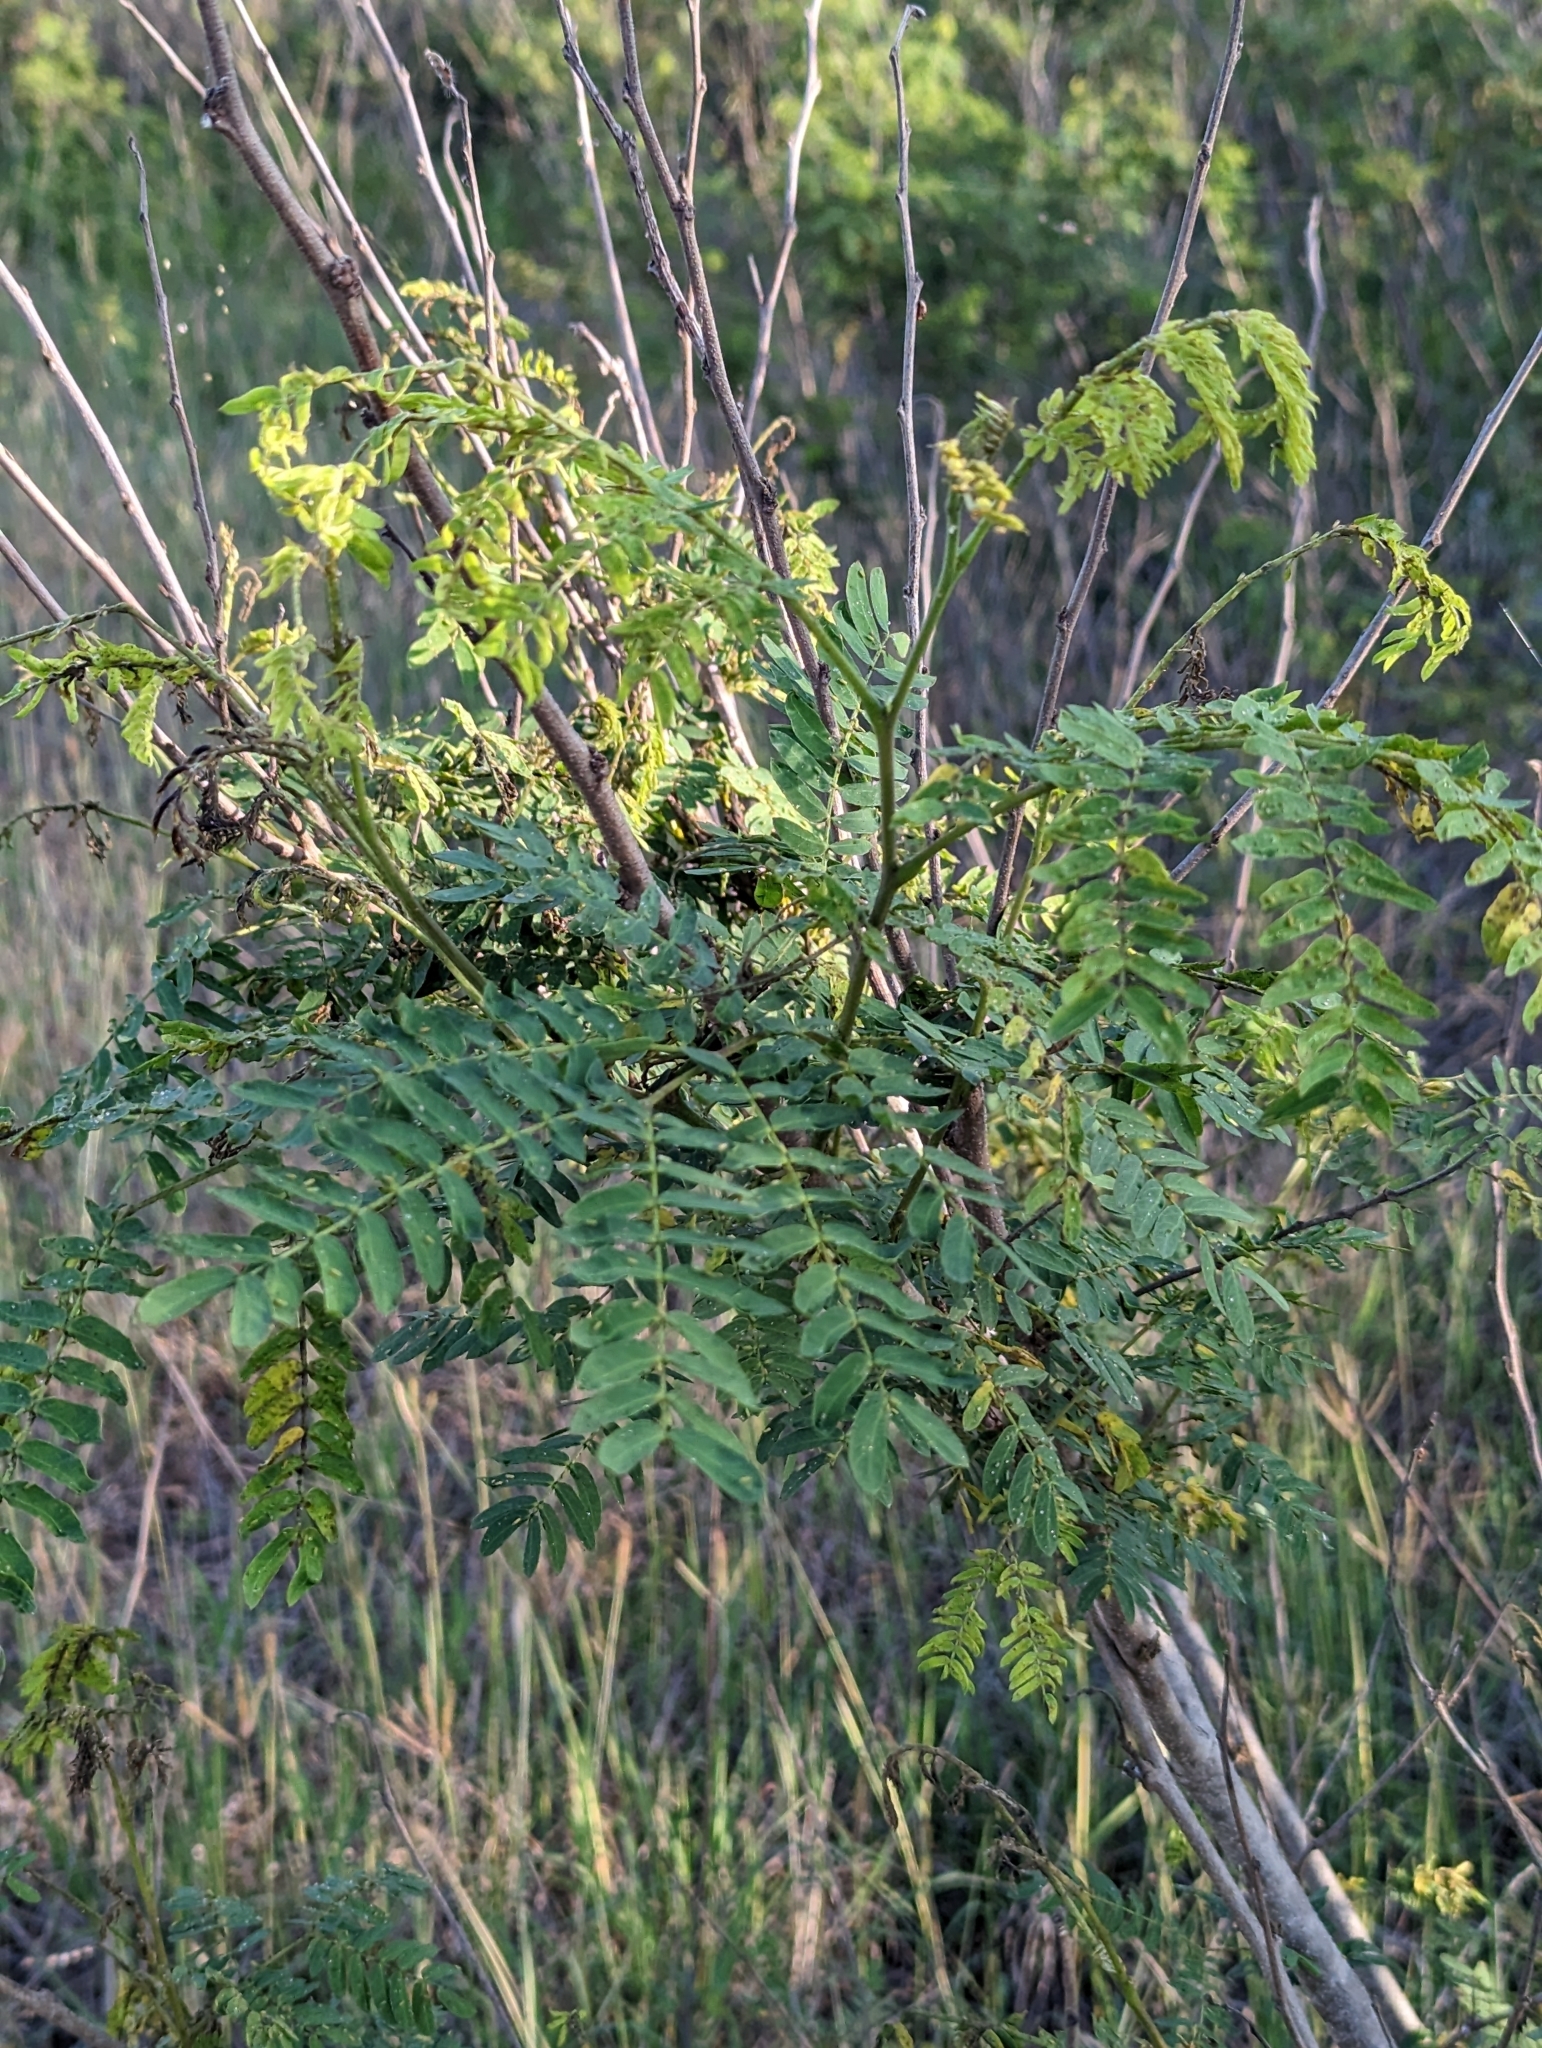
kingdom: Plantae
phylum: Tracheophyta
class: Magnoliopsida
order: Fabales
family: Fabaceae
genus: Leucaena
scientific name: Leucaena leucocephala
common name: White leadtree
